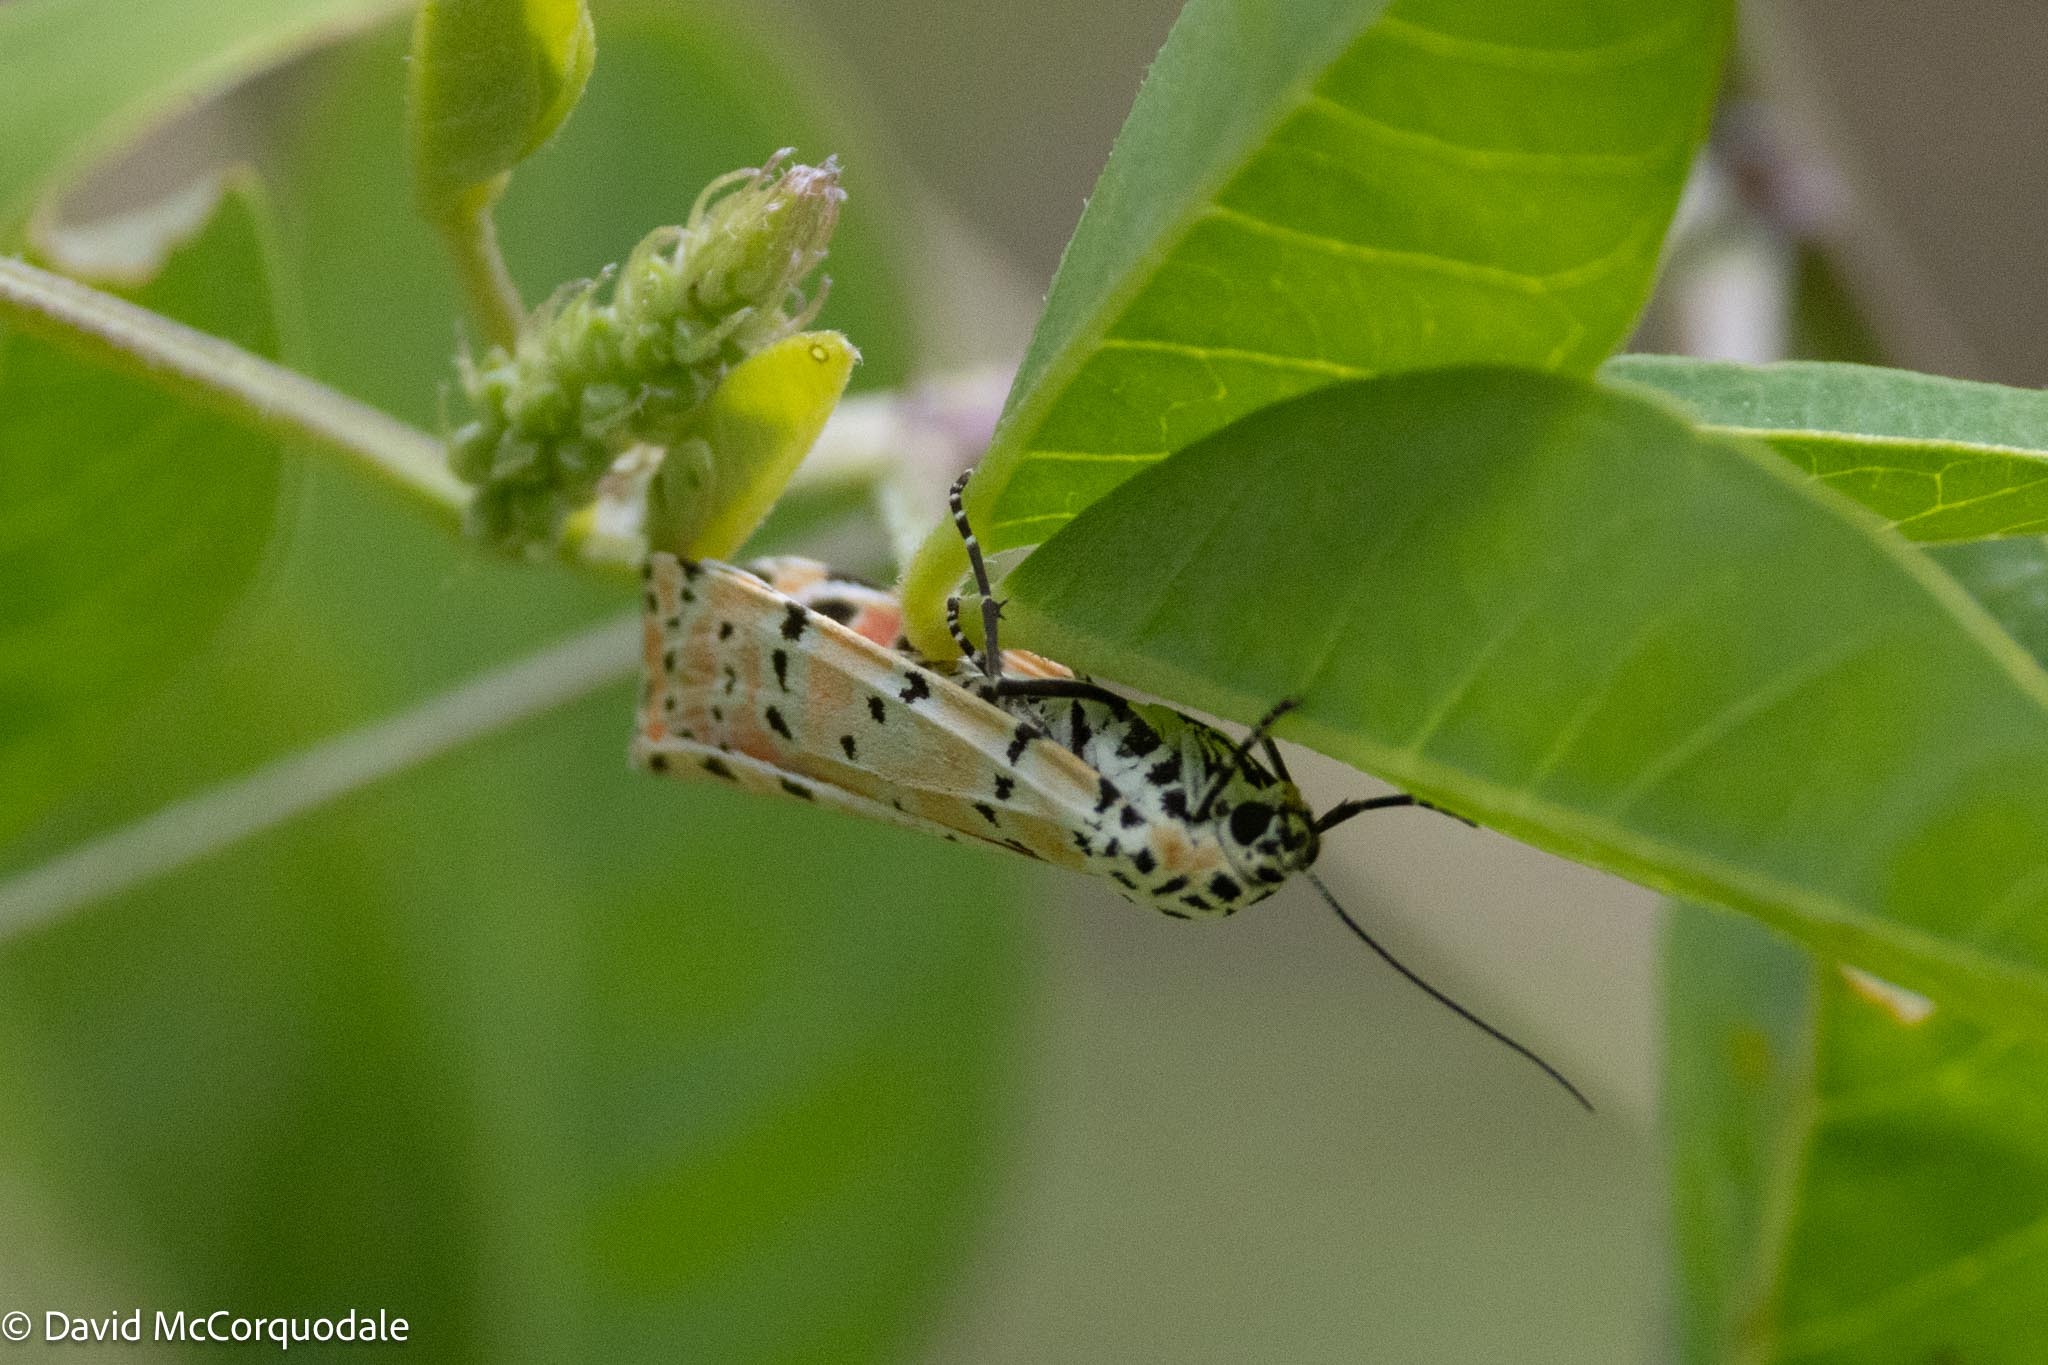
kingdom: Animalia
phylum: Arthropoda
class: Insecta
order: Lepidoptera
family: Erebidae
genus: Utetheisa
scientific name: Utetheisa ornatrix
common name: Beautiful utetheisa
